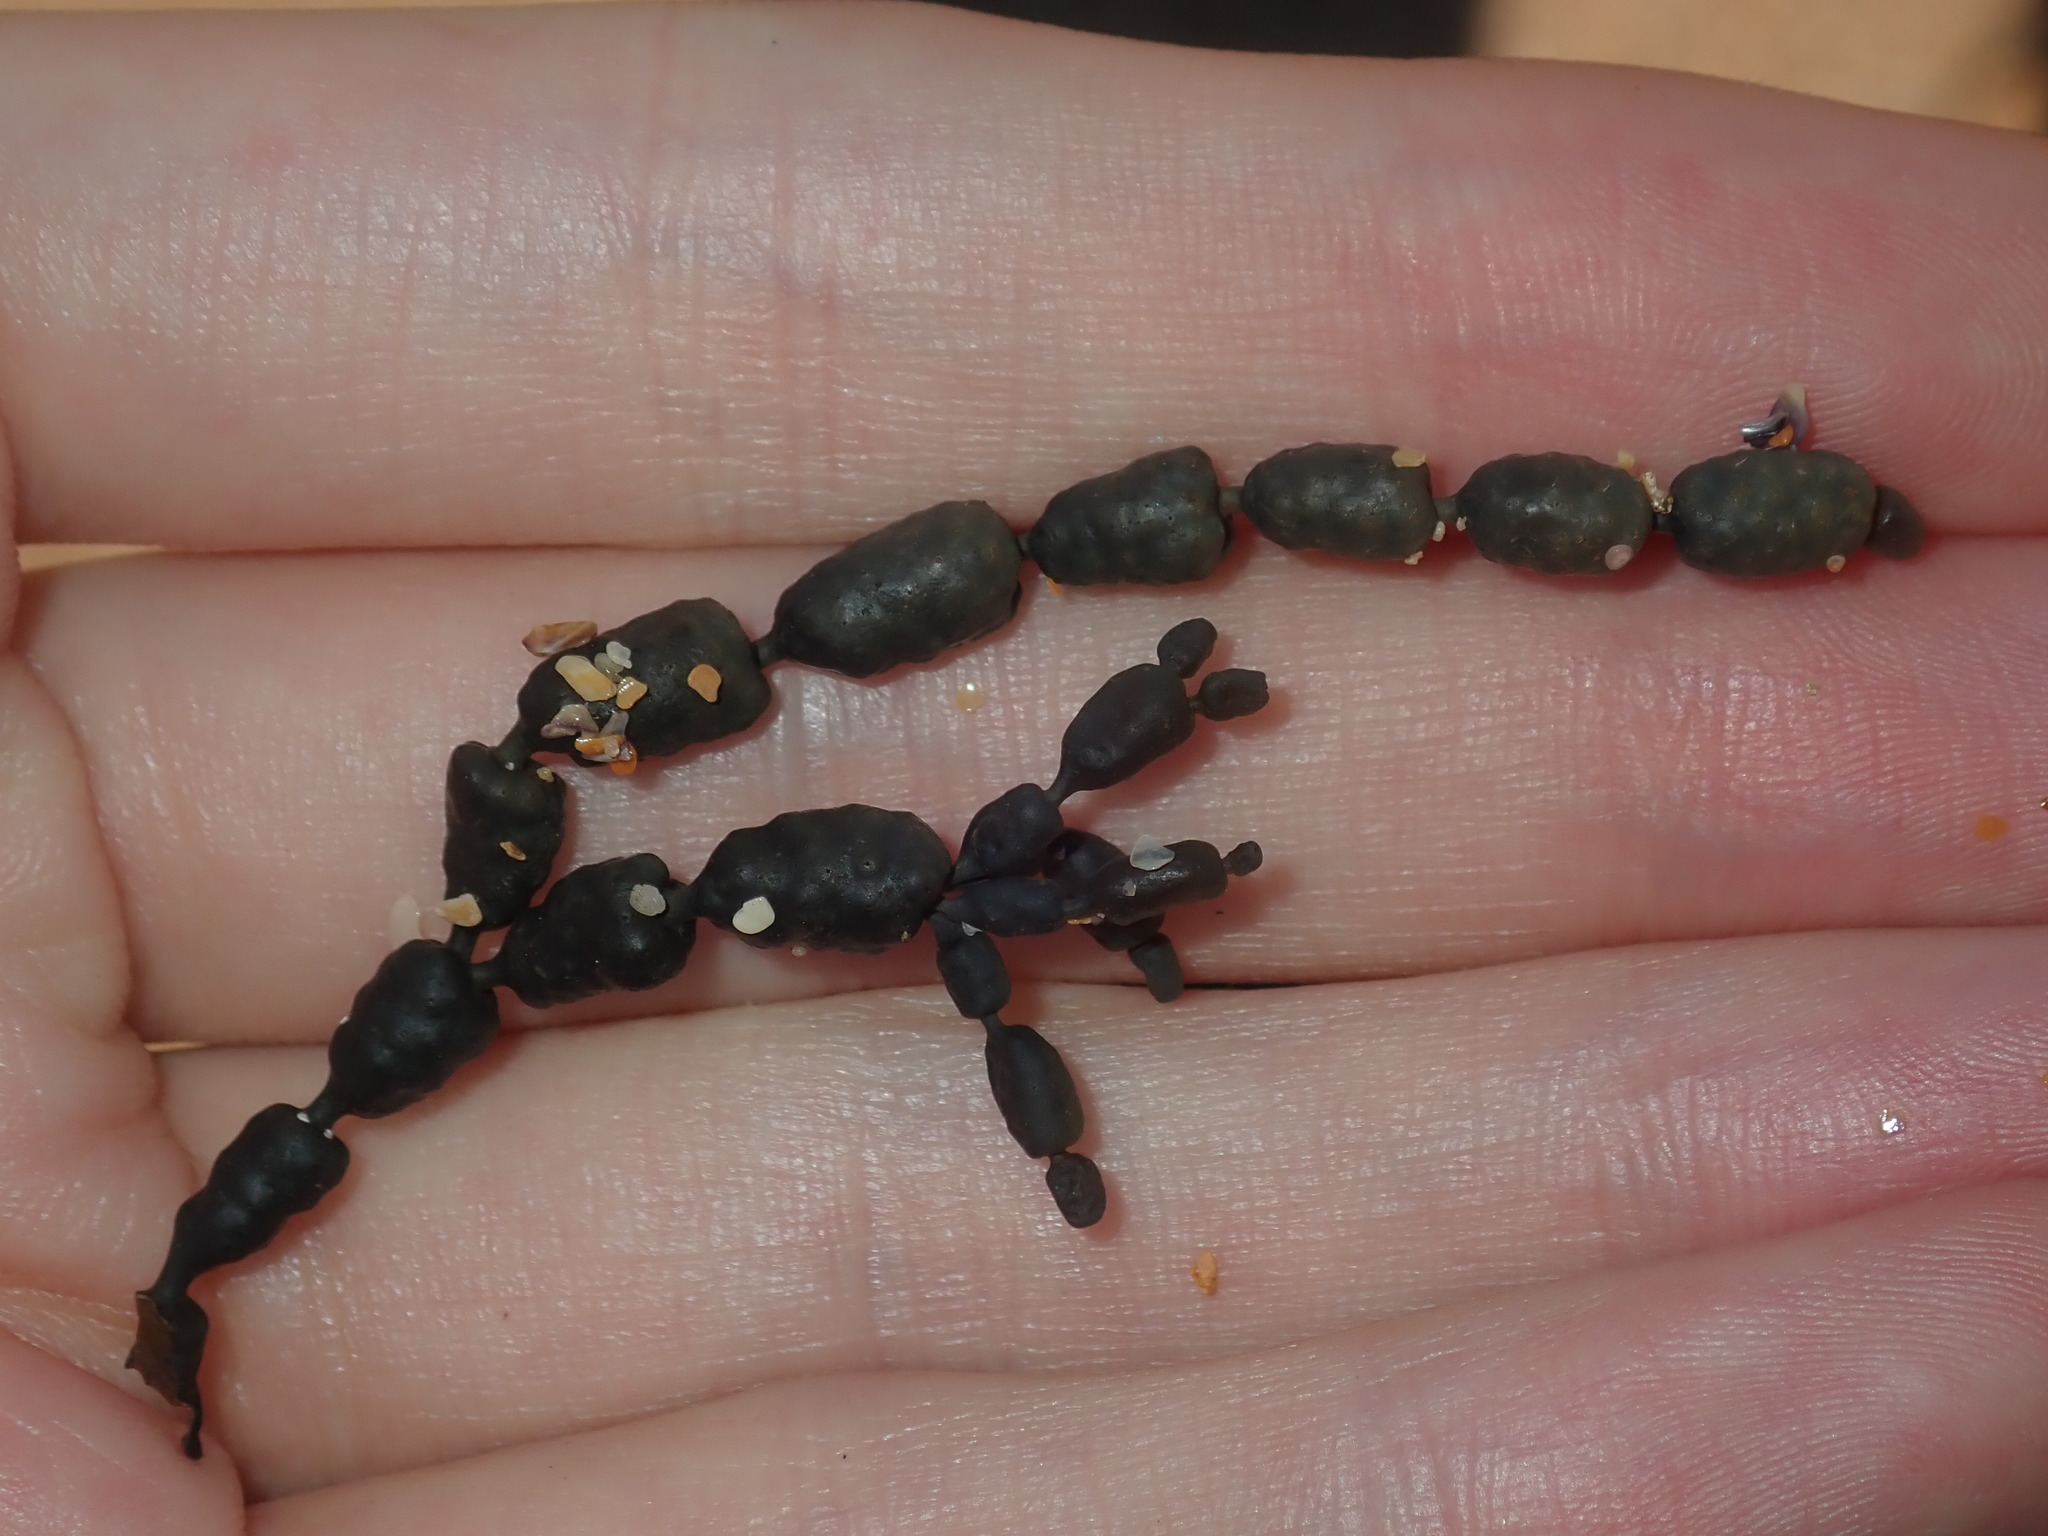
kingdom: Chromista
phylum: Ochrophyta
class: Phaeophyceae
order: Fucales
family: Hormosiraceae
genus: Hormosira
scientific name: Hormosira banksii
